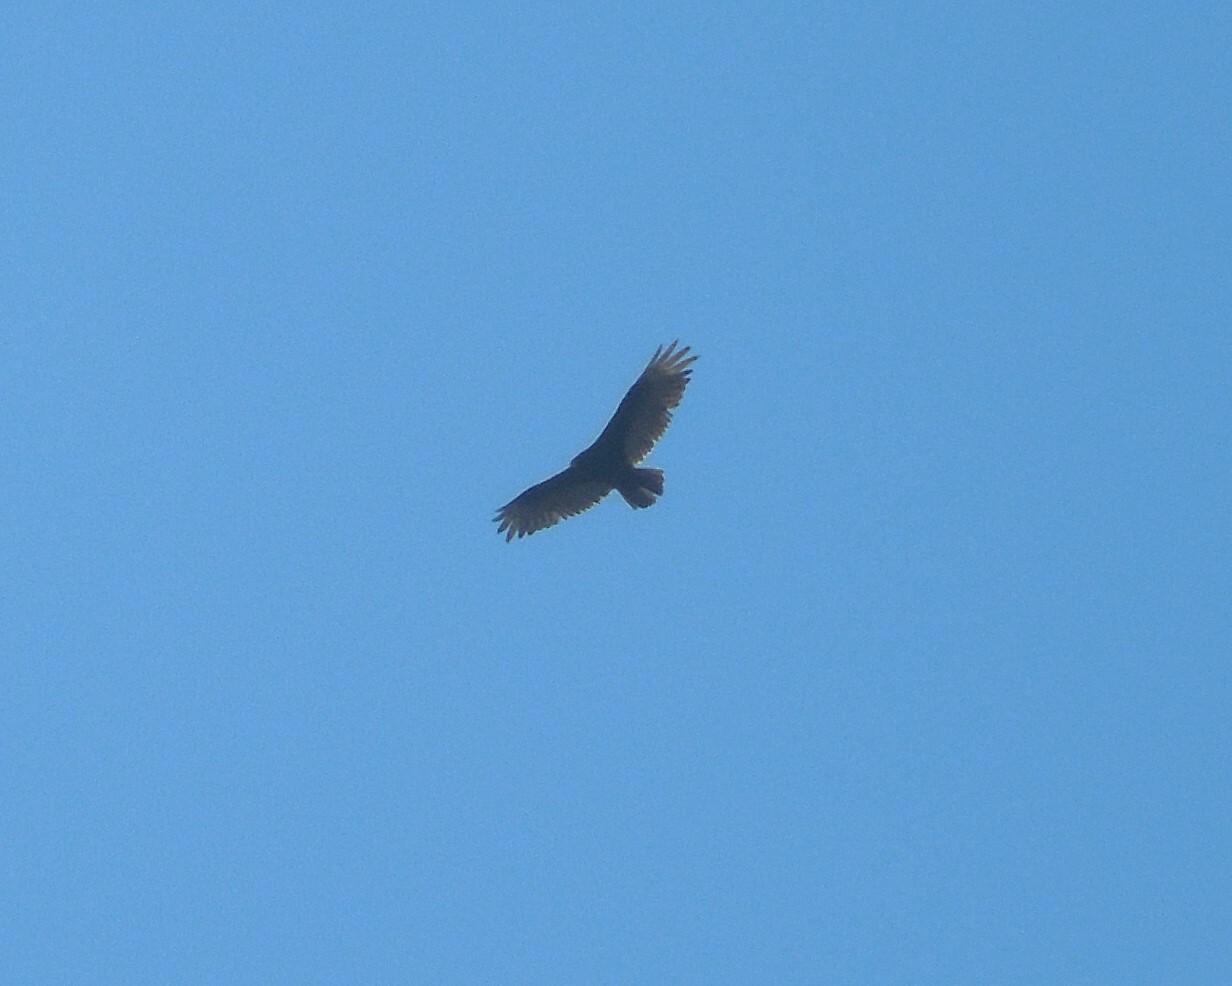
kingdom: Animalia
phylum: Chordata
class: Aves
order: Accipitriformes
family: Cathartidae
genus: Cathartes
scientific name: Cathartes aura
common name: Turkey vulture
